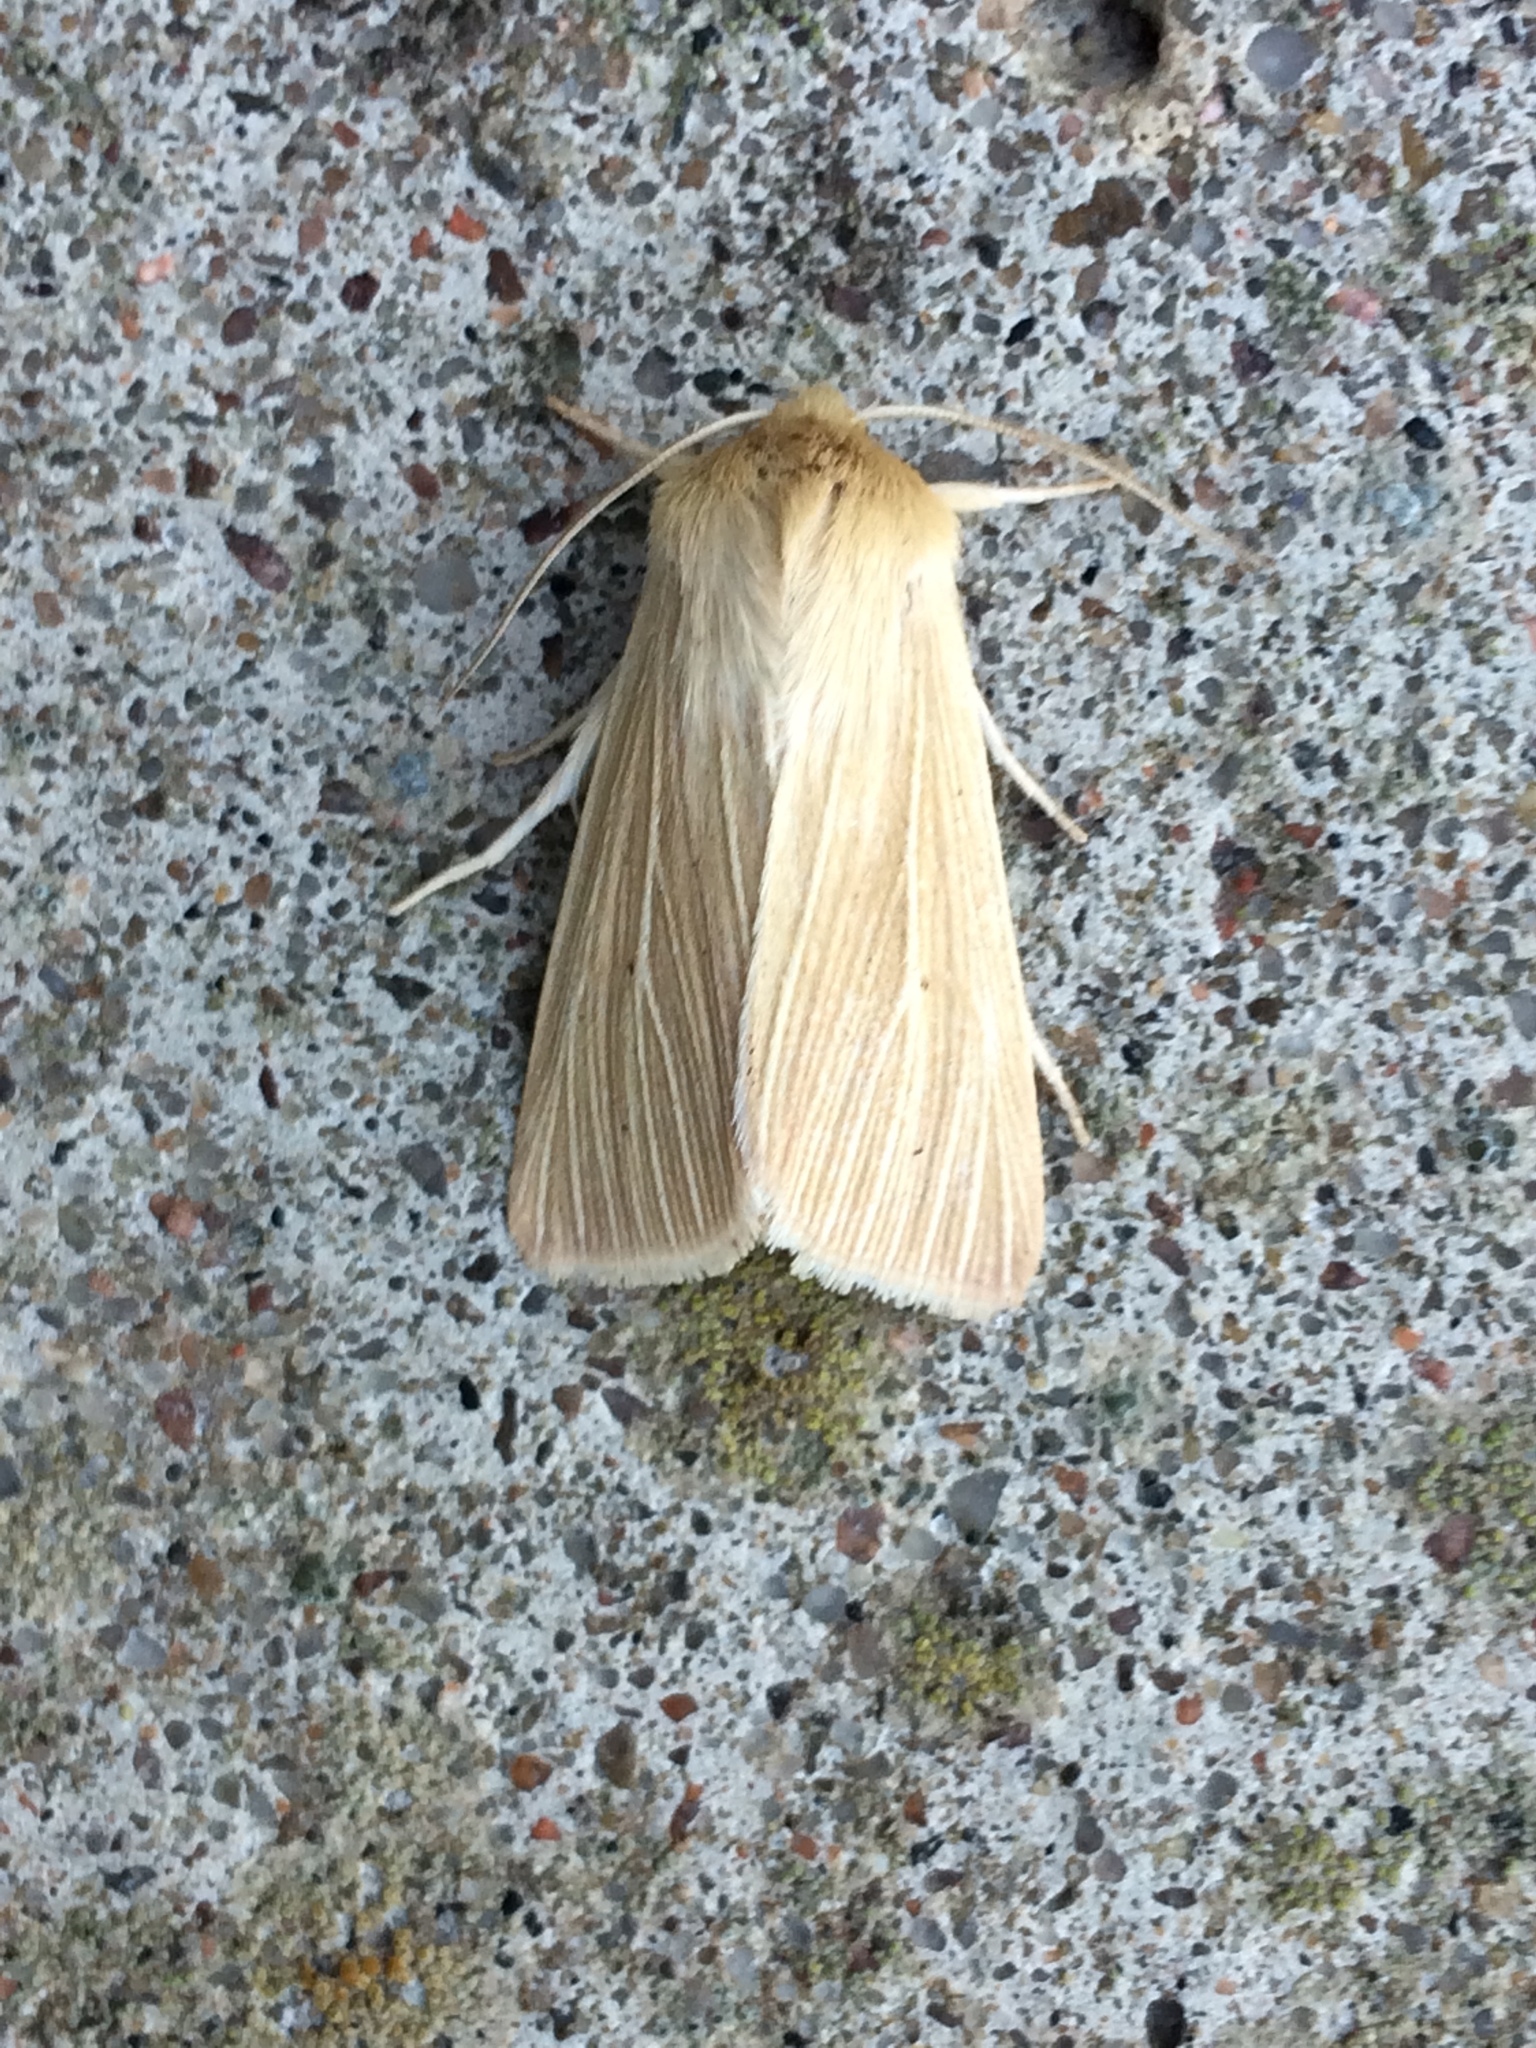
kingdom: Animalia
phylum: Arthropoda
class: Insecta
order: Lepidoptera
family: Noctuidae
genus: Mythimna
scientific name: Mythimna pallens
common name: Common wainscot
